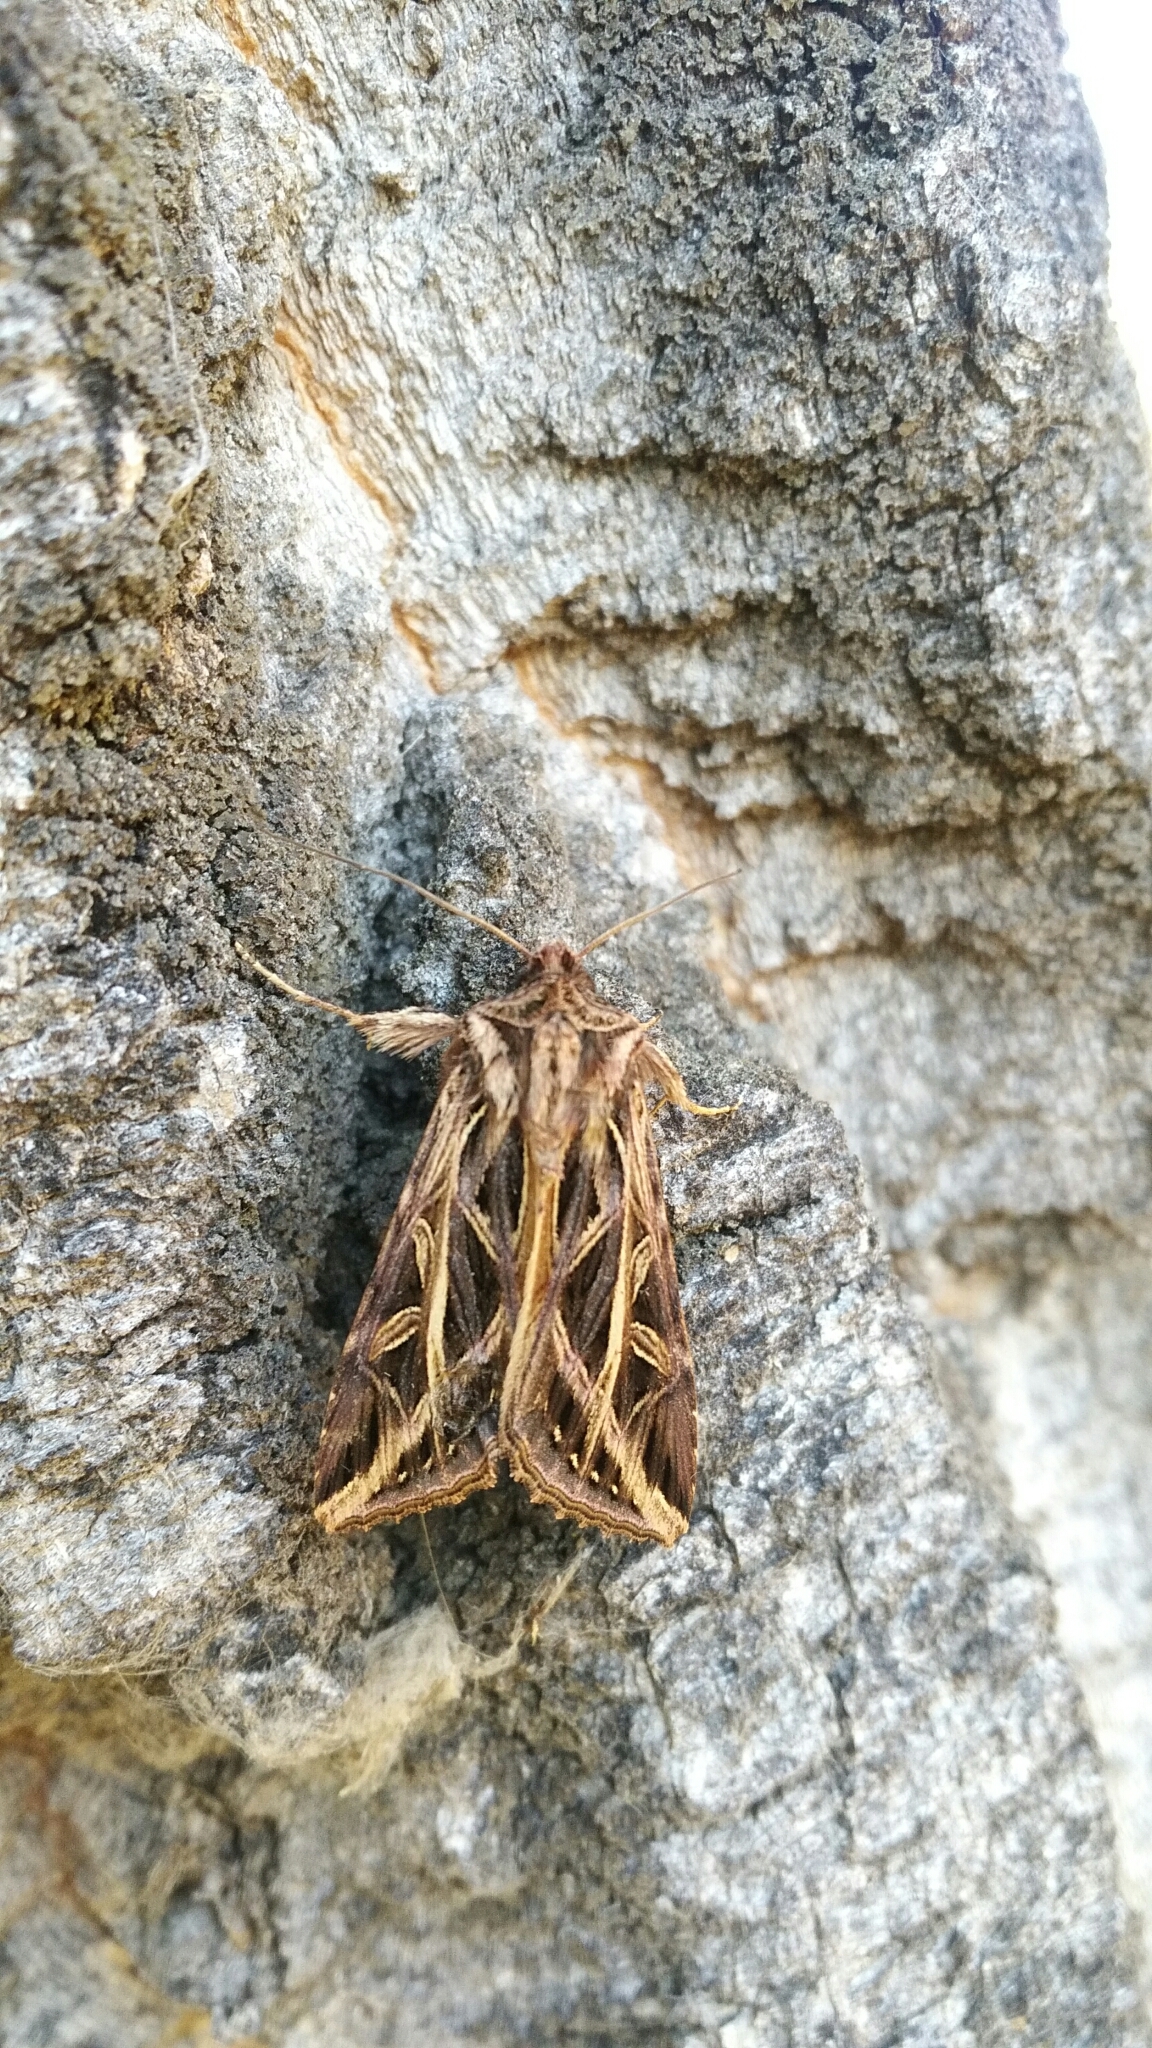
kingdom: Animalia
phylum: Arthropoda
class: Insecta
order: Lepidoptera
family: Noctuidae
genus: Dargida
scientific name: Dargida procinctus
